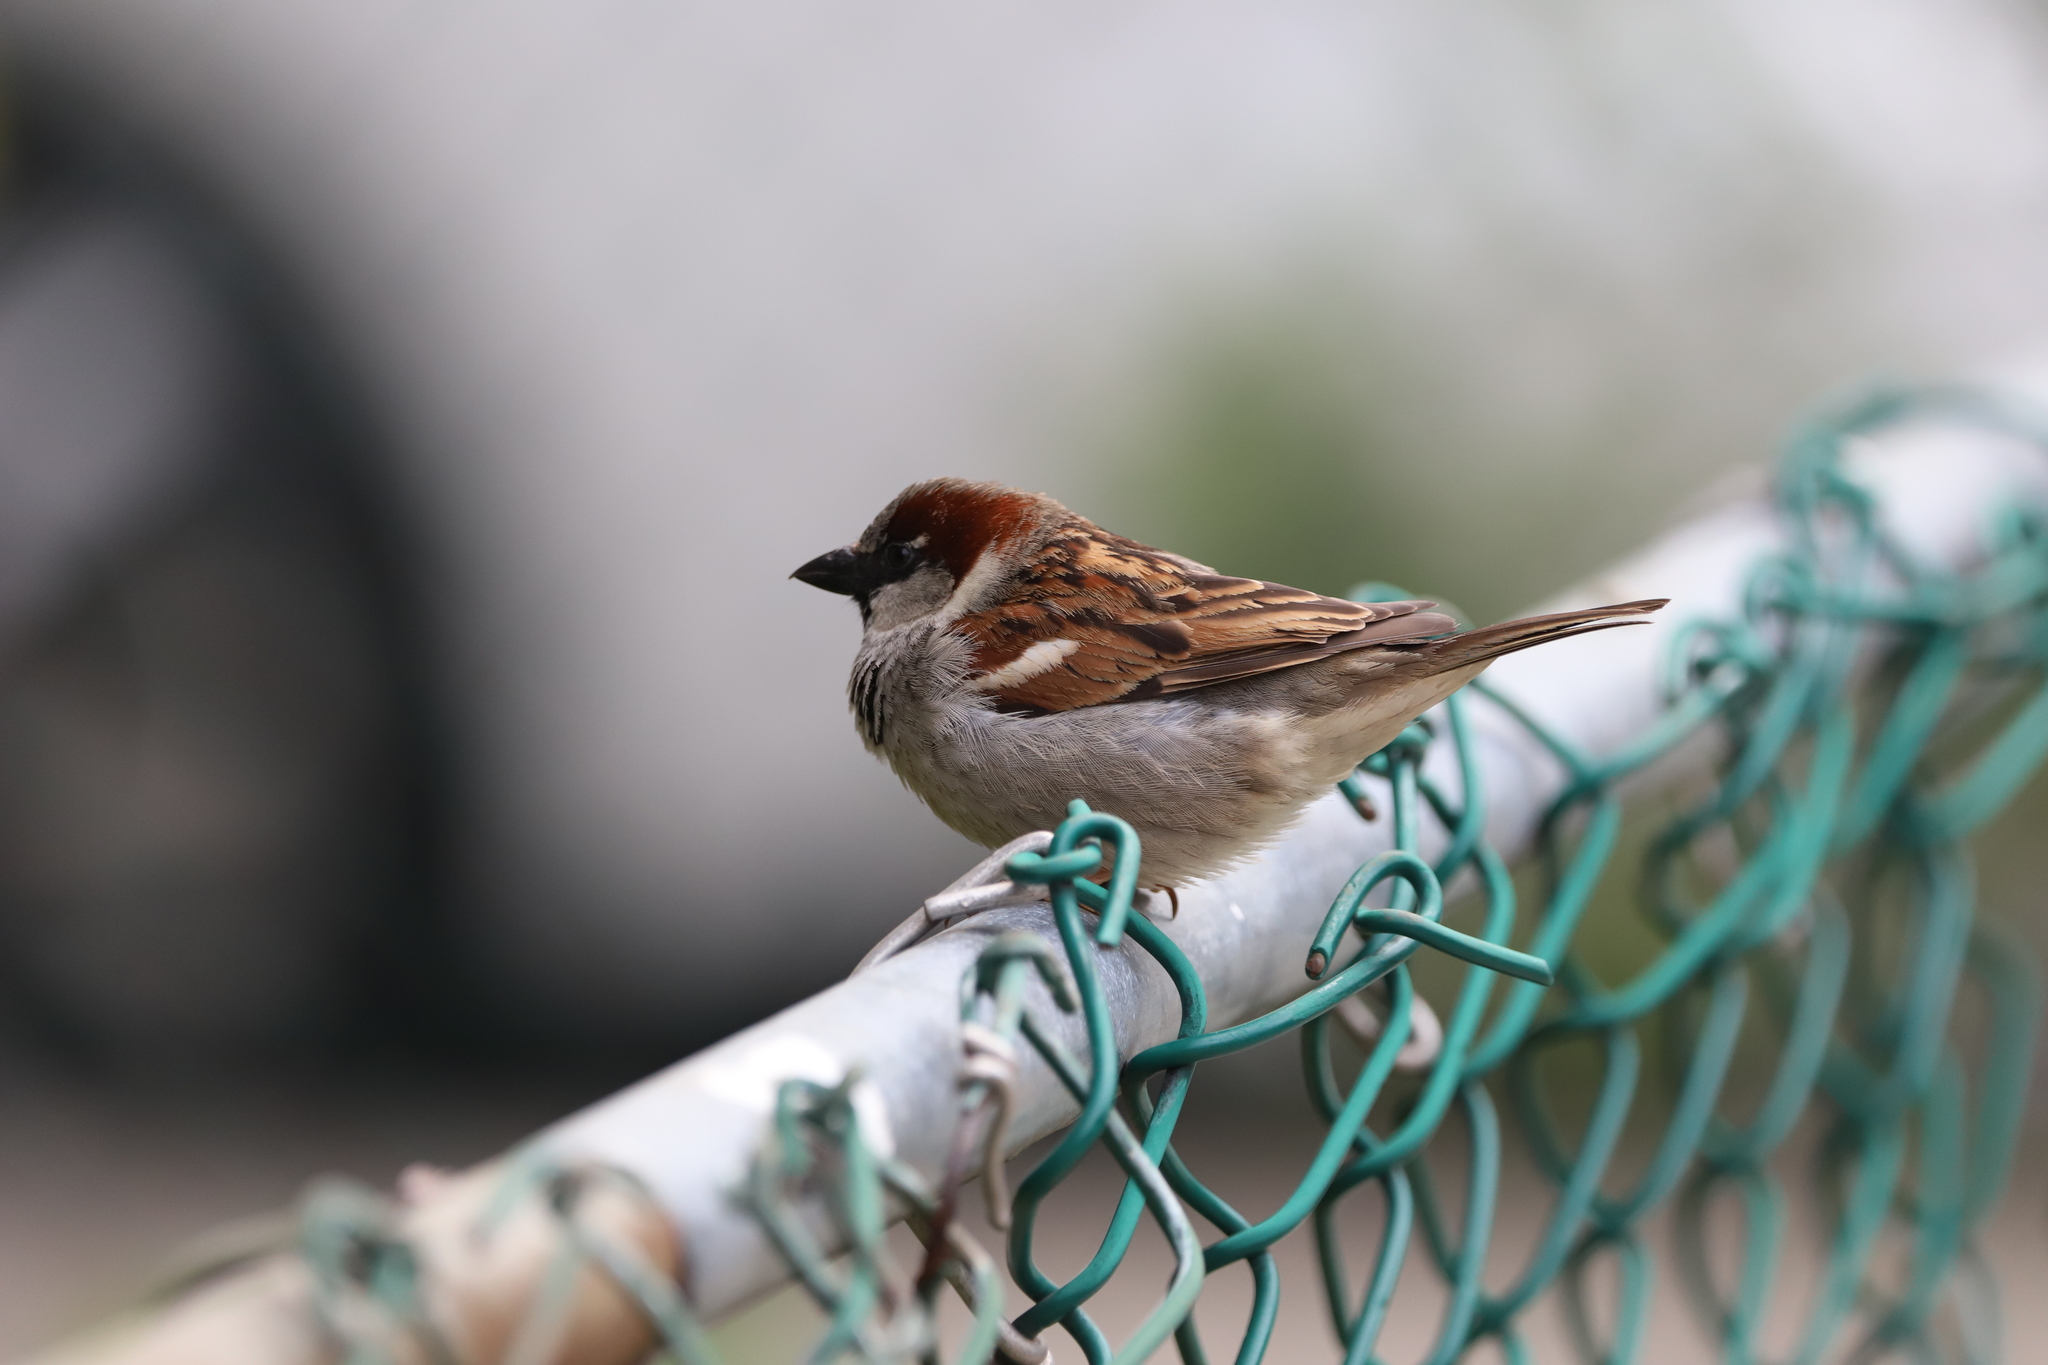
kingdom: Animalia
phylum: Chordata
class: Aves
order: Passeriformes
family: Passeridae
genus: Passer
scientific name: Passer domesticus
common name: House sparrow
